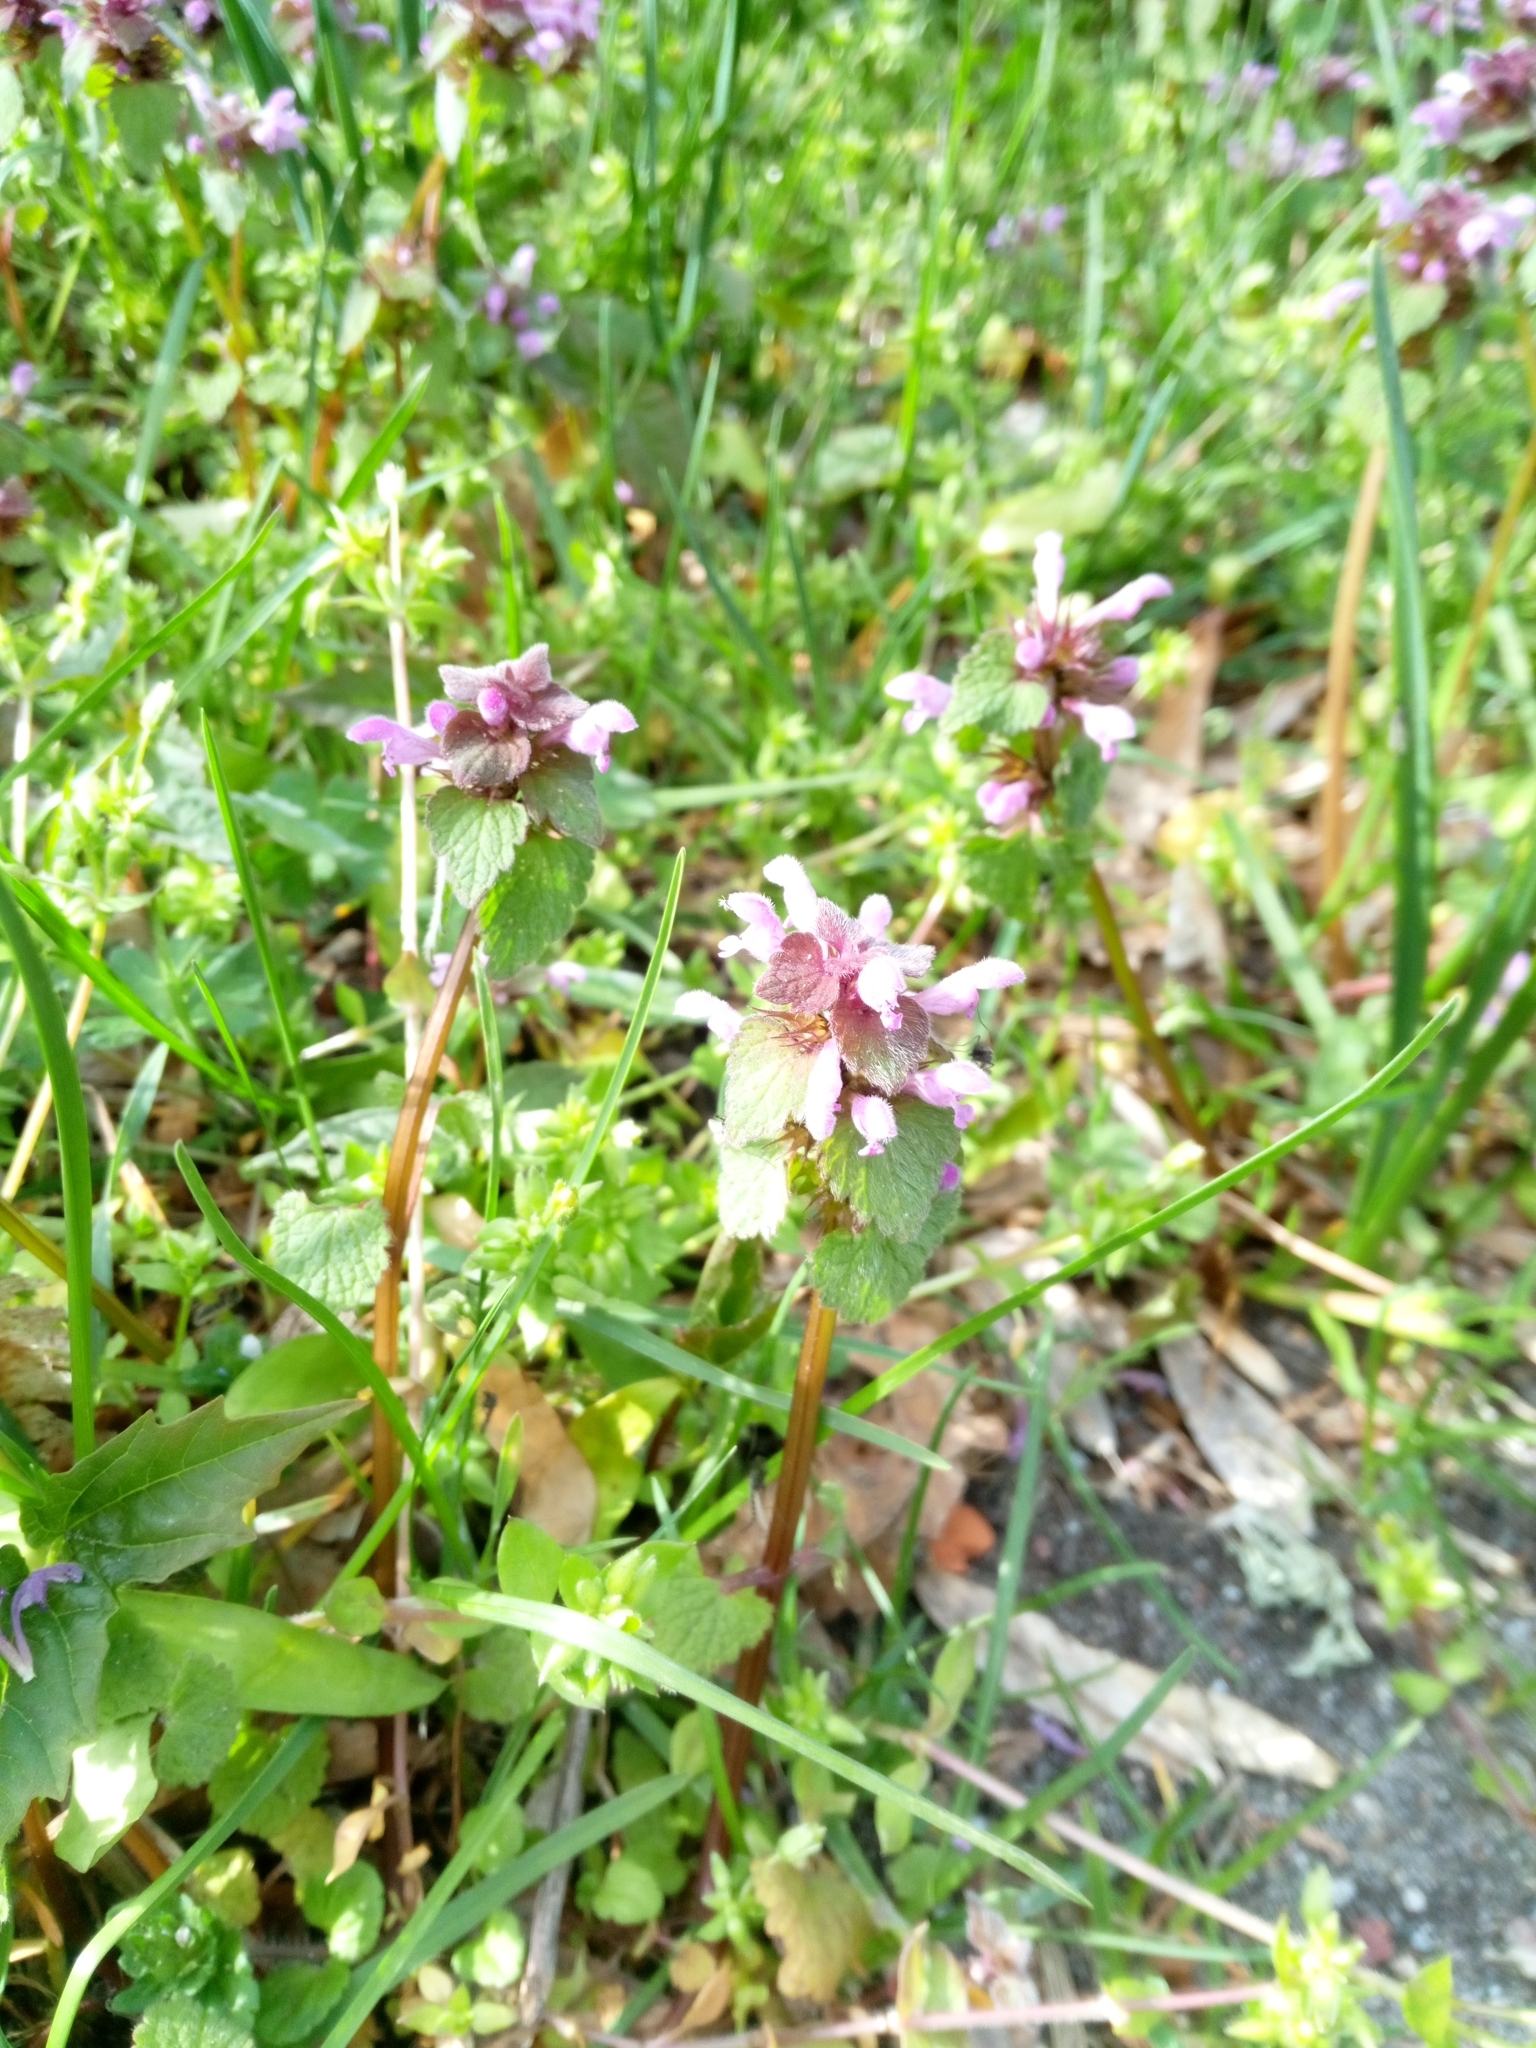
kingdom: Plantae
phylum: Tracheophyta
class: Magnoliopsida
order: Lamiales
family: Lamiaceae
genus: Lamium
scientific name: Lamium purpureum
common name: Red dead-nettle
